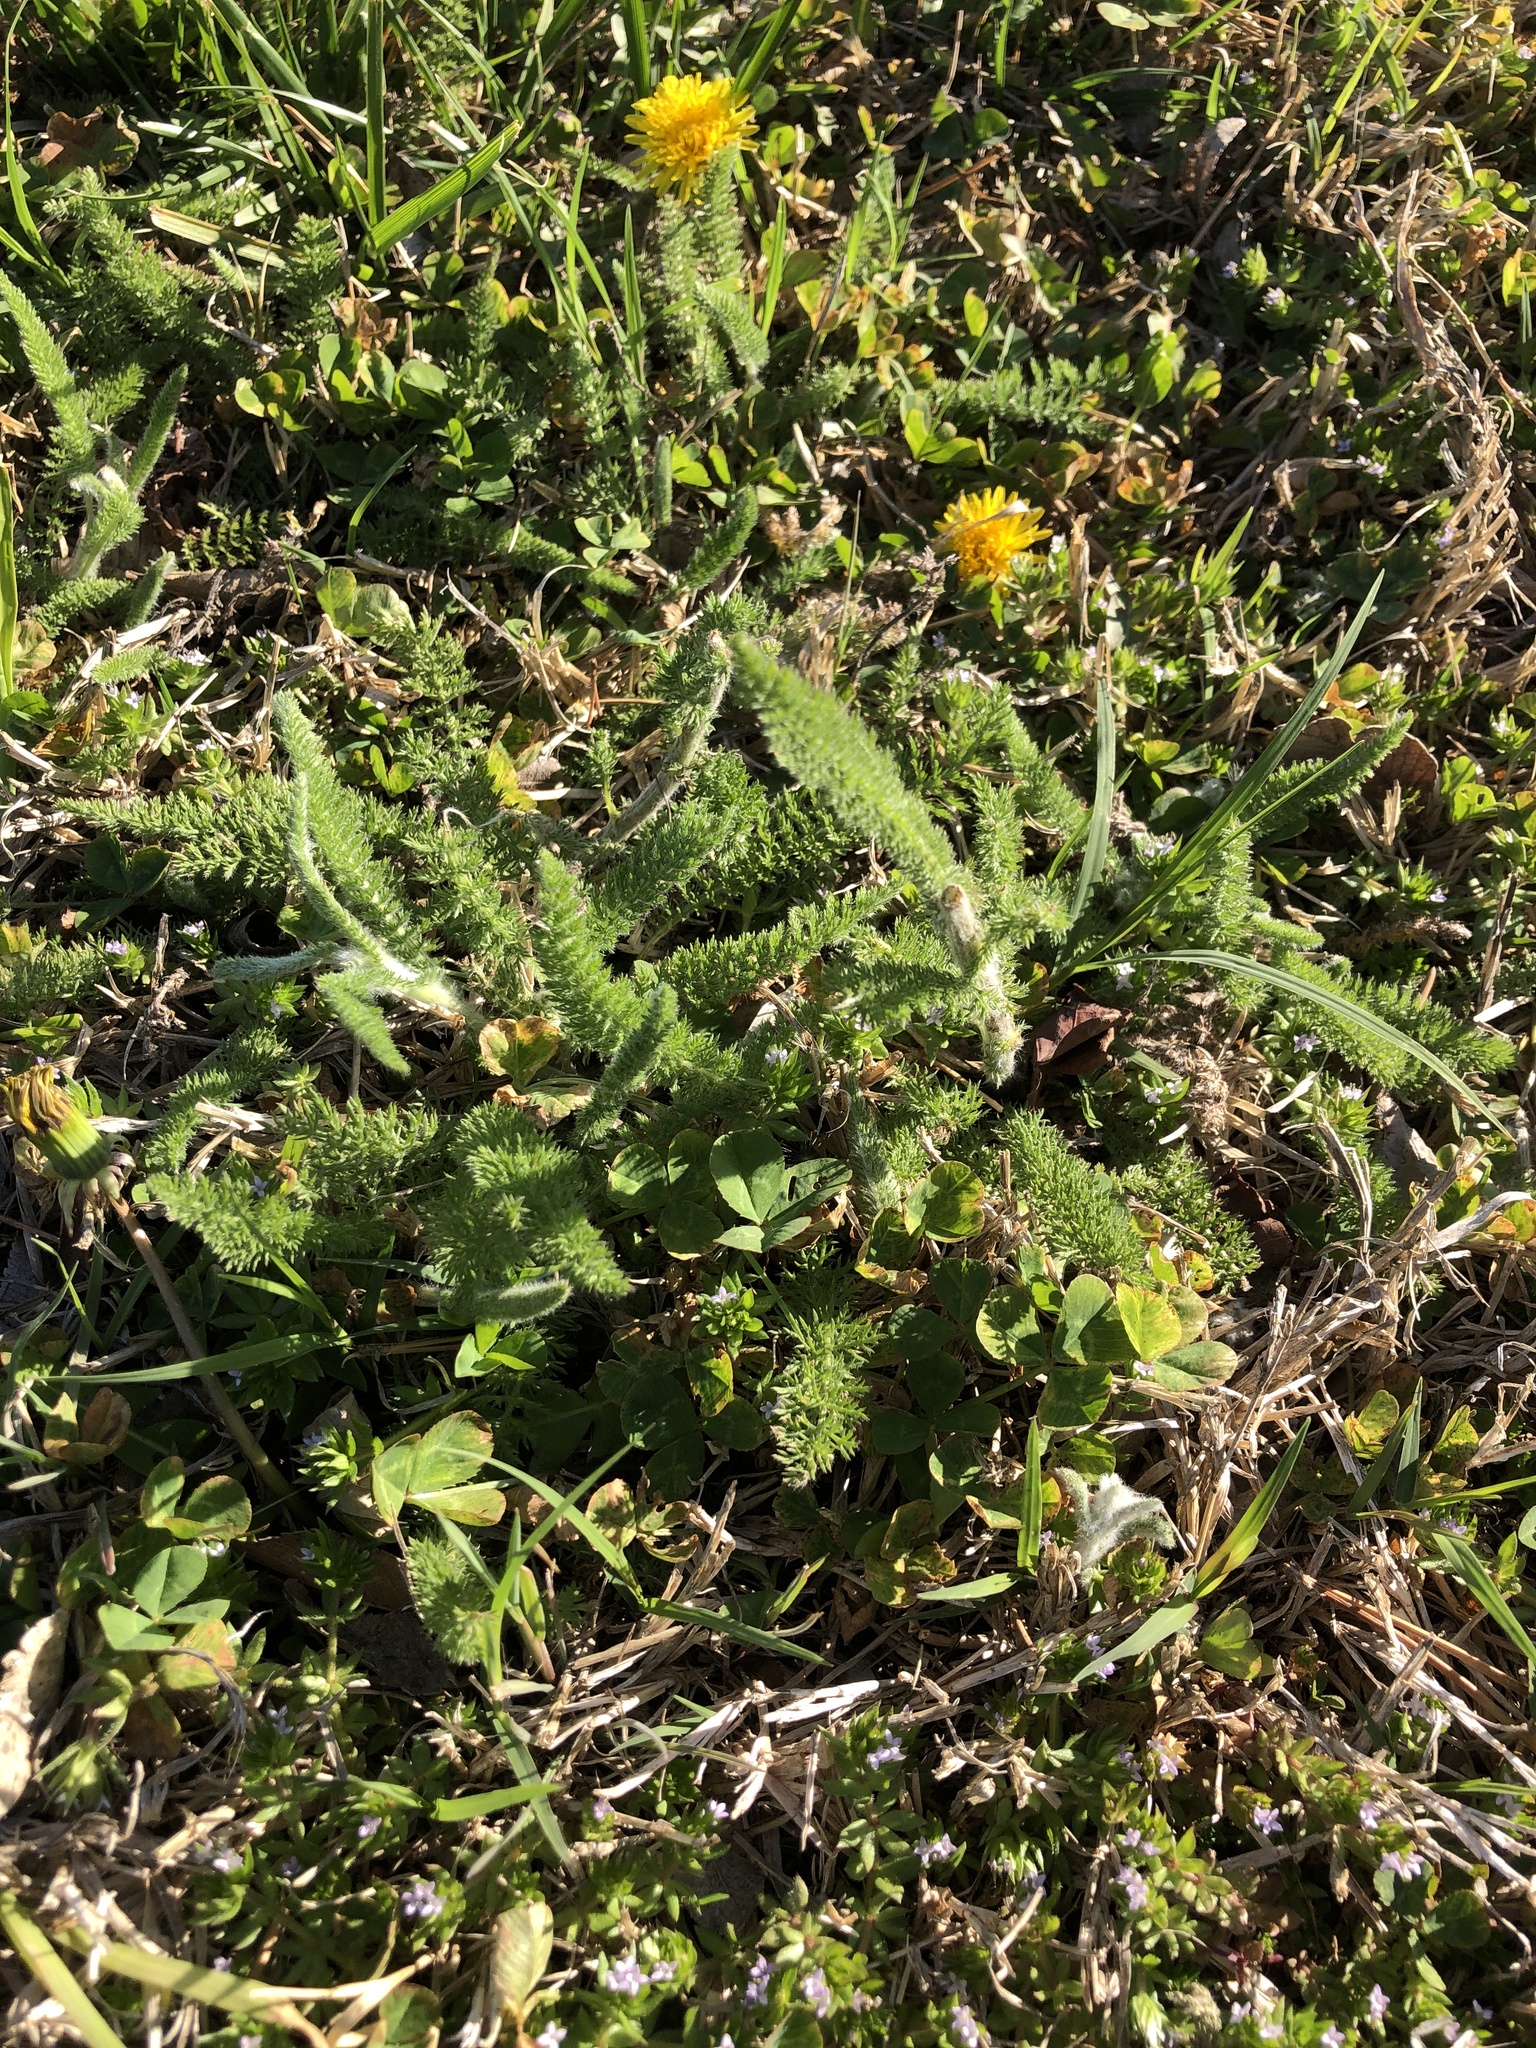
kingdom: Plantae
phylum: Tracheophyta
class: Magnoliopsida
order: Asterales
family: Asteraceae
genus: Achillea
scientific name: Achillea millefolium
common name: Yarrow
